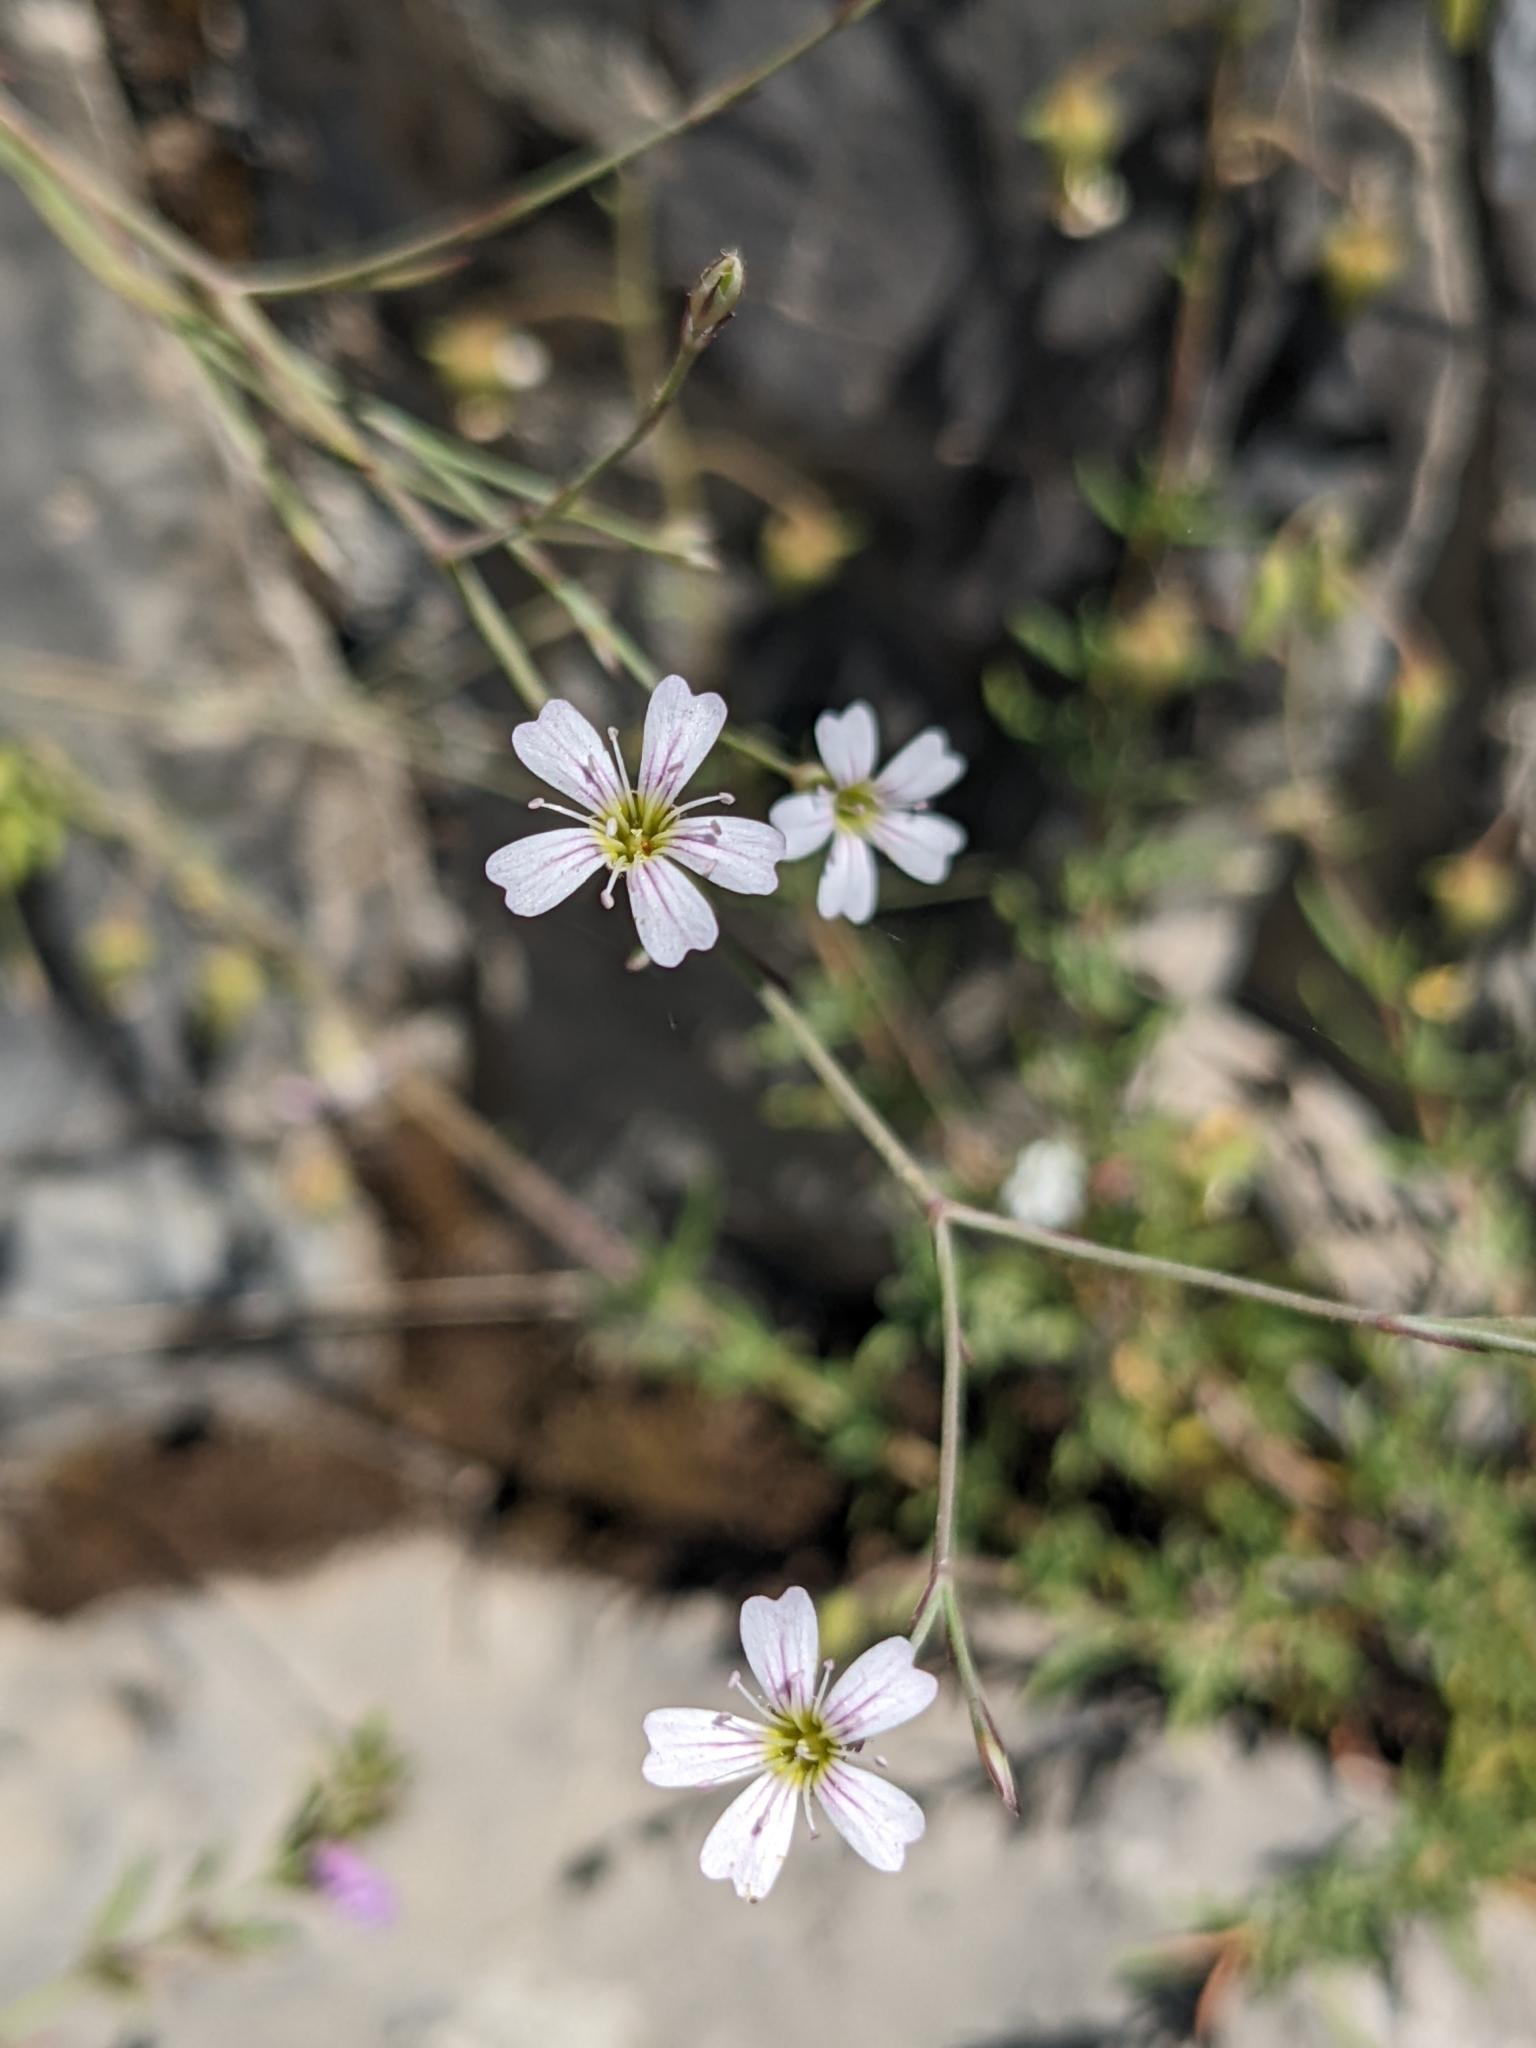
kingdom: Plantae
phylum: Tracheophyta
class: Magnoliopsida
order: Caryophyllales
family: Caryophyllaceae
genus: Petrorhagia
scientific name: Petrorhagia saxifraga
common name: Tunicflower
